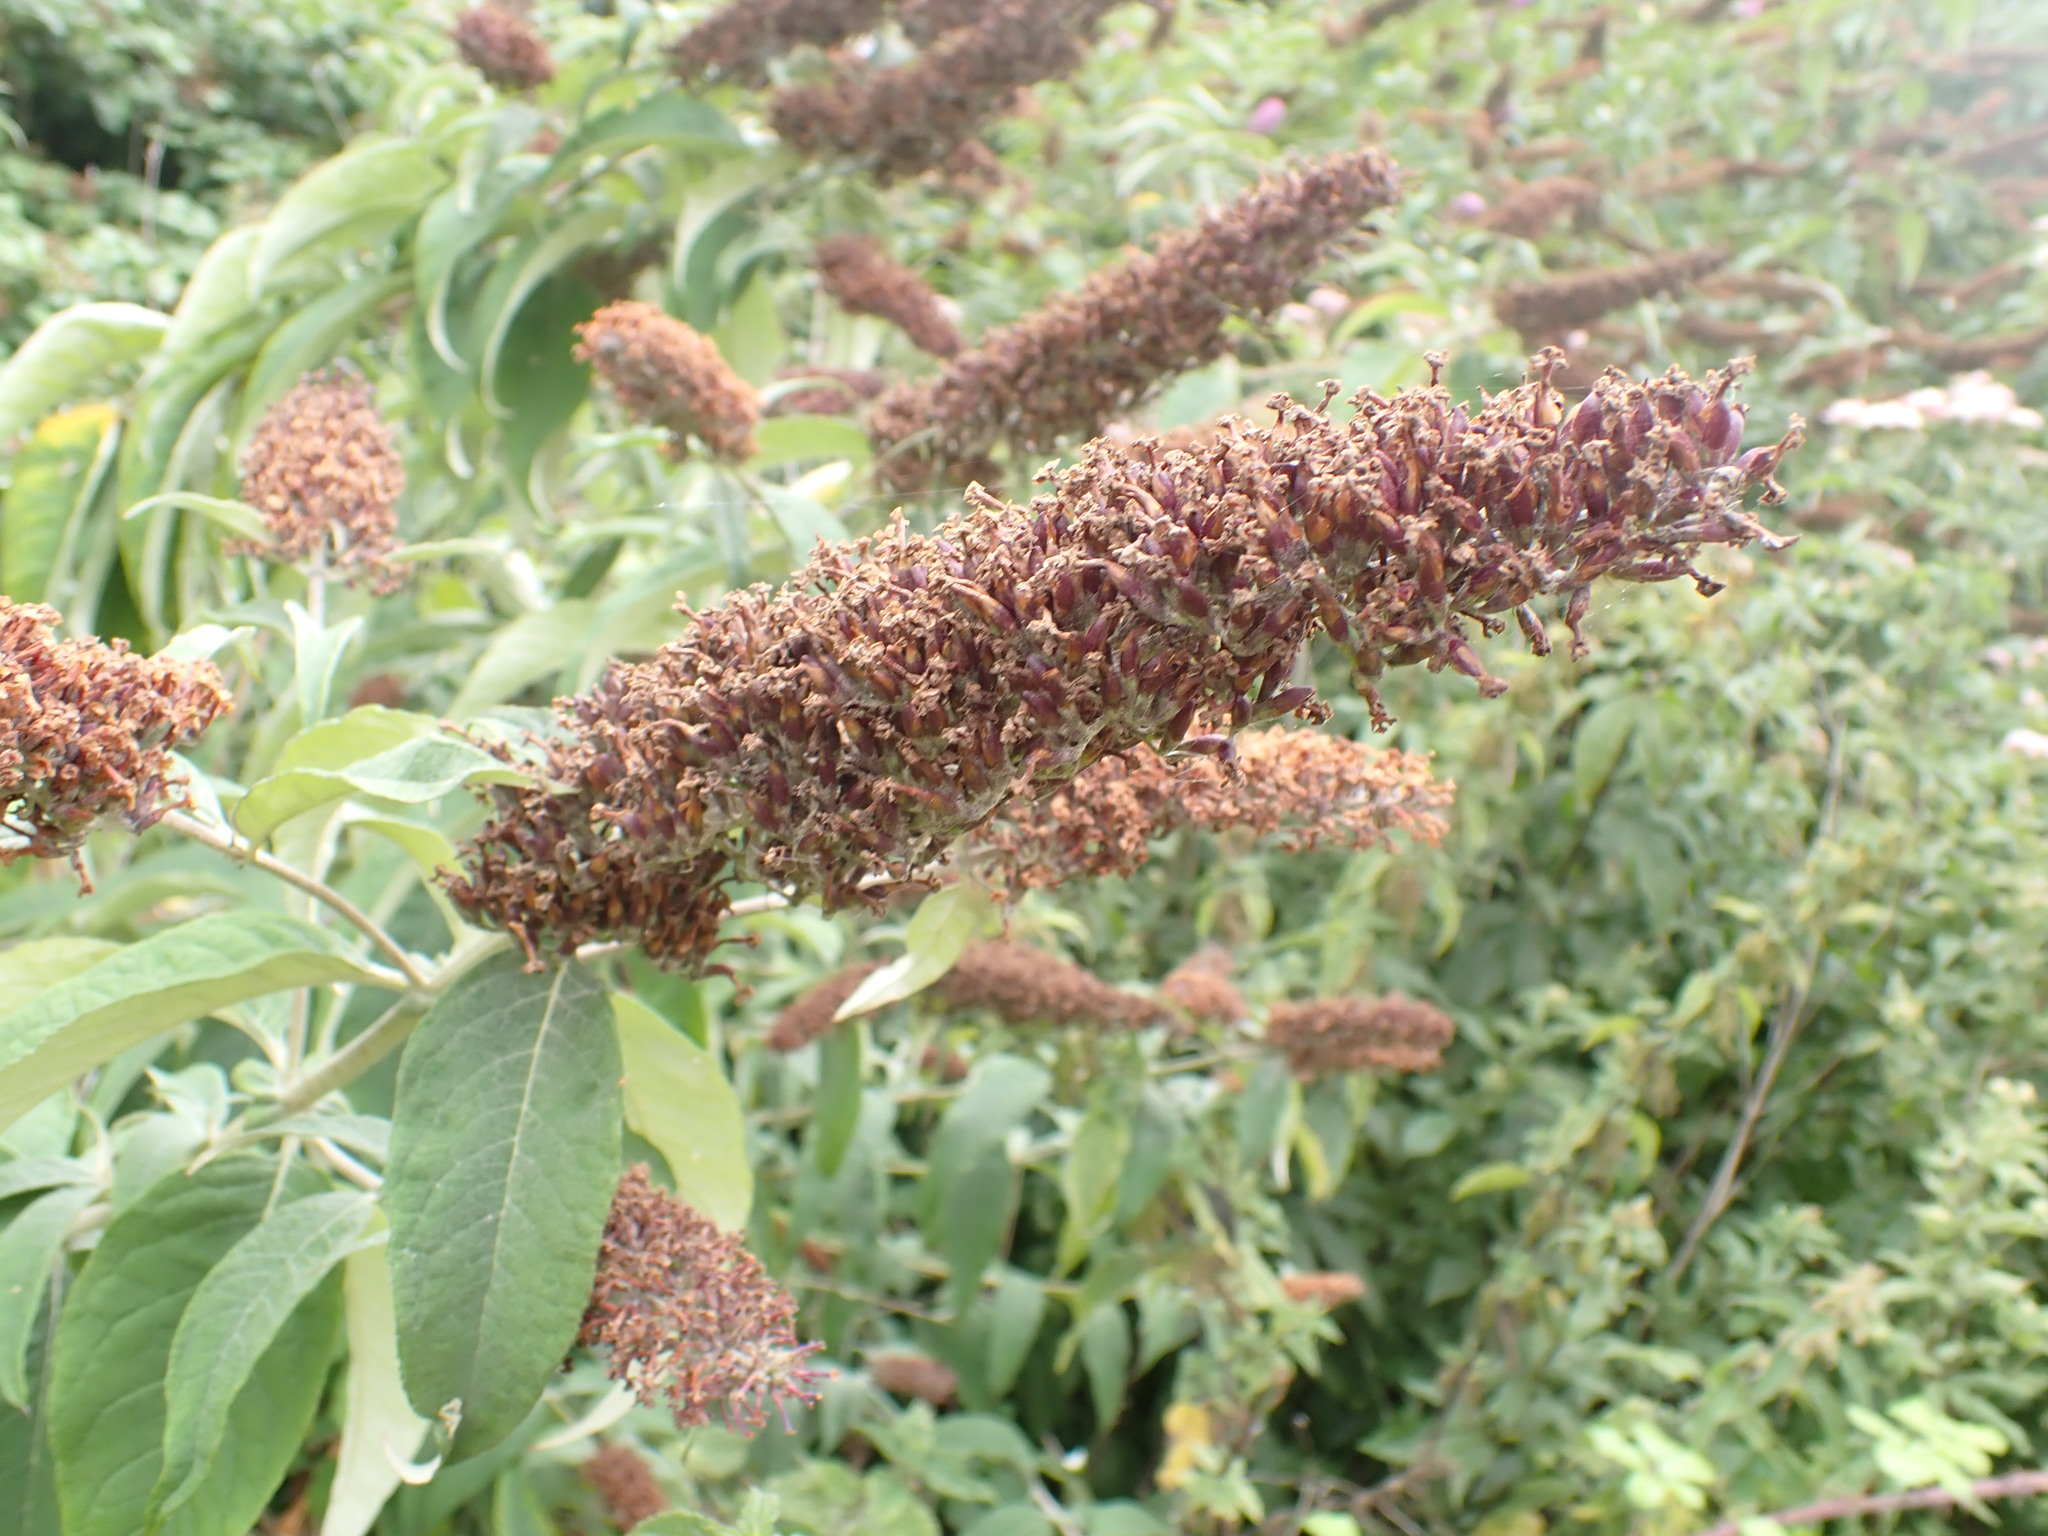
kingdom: Plantae
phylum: Tracheophyta
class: Magnoliopsida
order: Lamiales
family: Scrophulariaceae
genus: Buddleja
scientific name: Buddleja davidii
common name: Butterfly-bush
